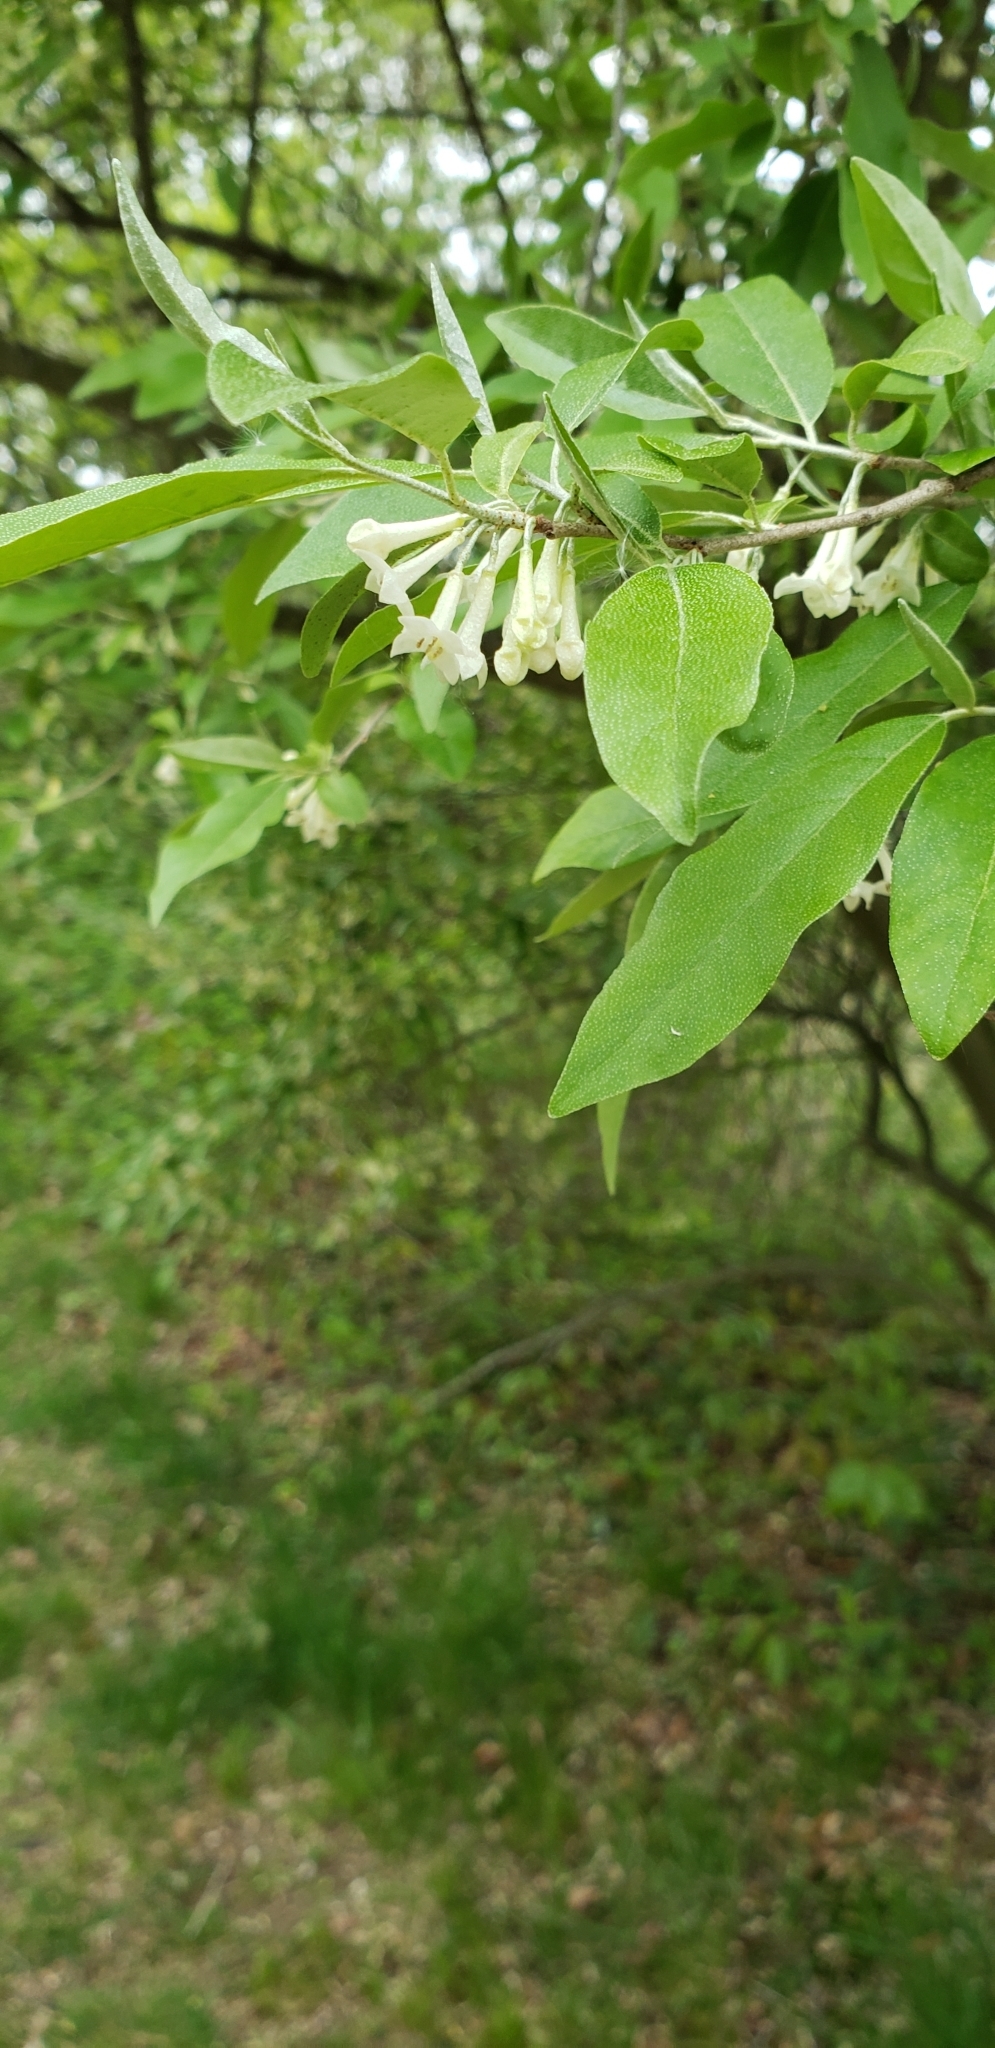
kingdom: Plantae
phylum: Tracheophyta
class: Magnoliopsida
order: Rosales
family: Elaeagnaceae
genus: Elaeagnus
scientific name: Elaeagnus umbellata
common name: Autumn olive
